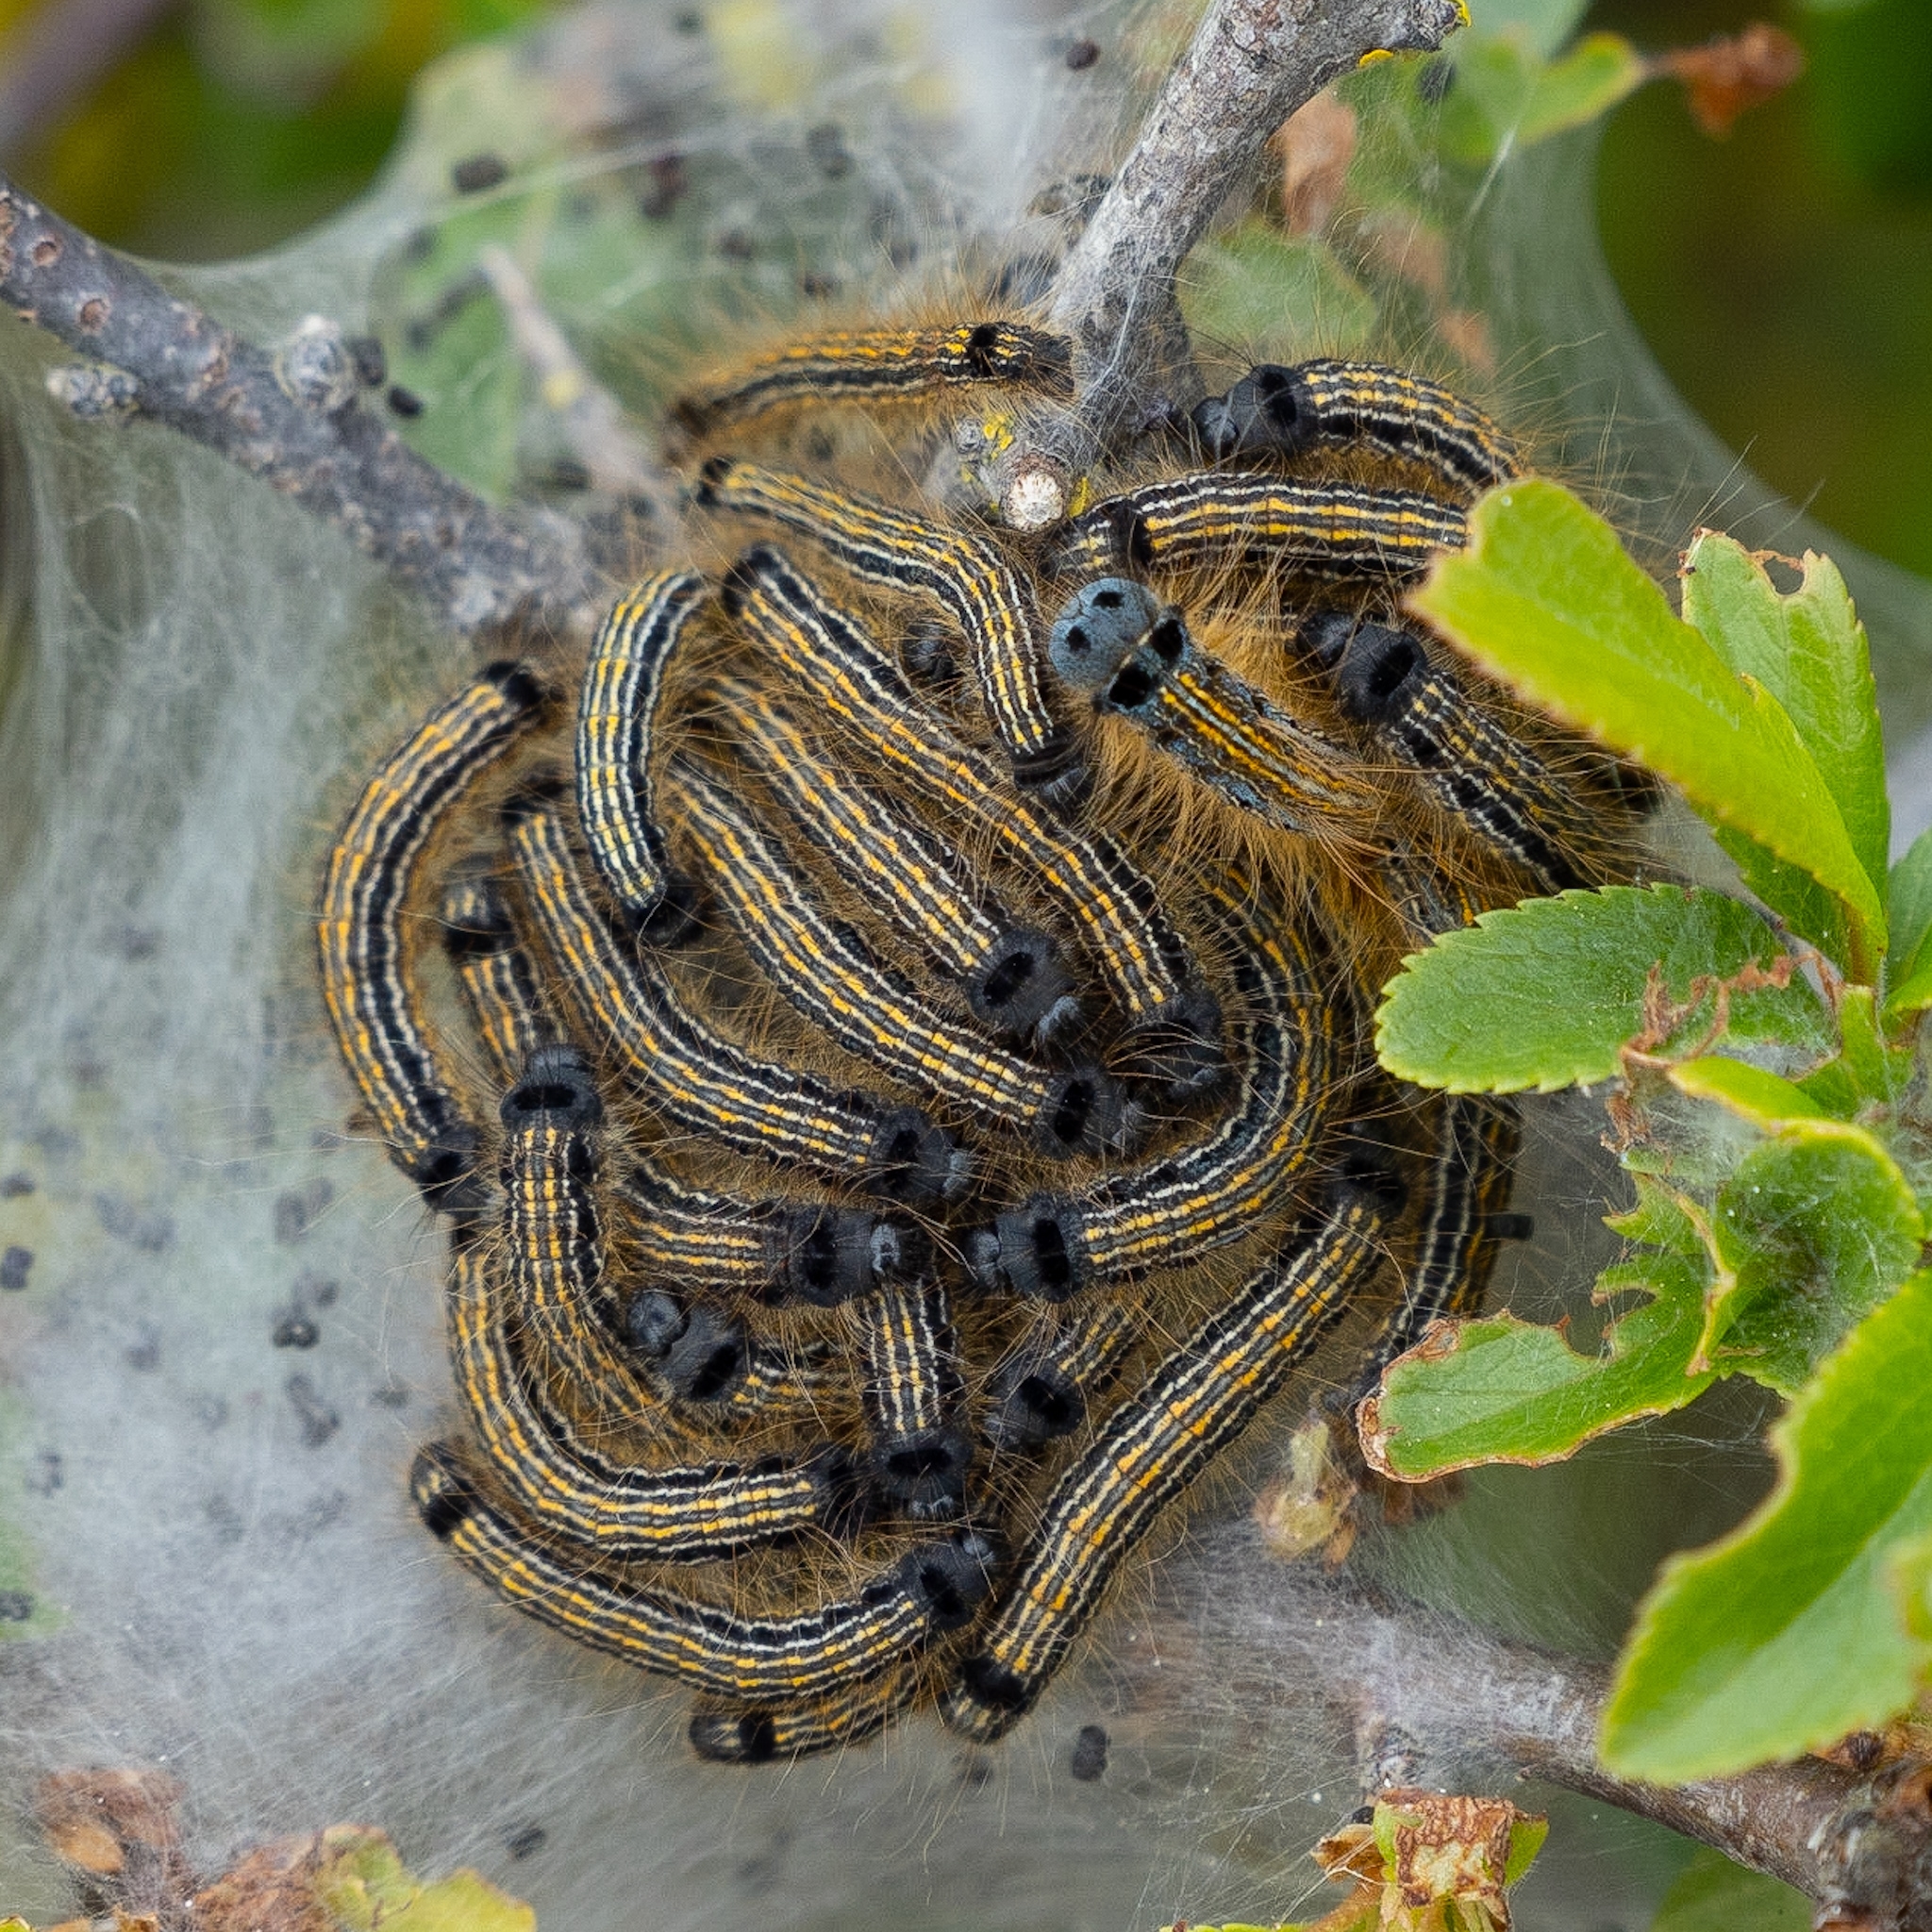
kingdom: Animalia
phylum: Arthropoda
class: Insecta
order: Lepidoptera
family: Lasiocampidae
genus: Malacosoma
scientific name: Malacosoma neustria
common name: The lackey
